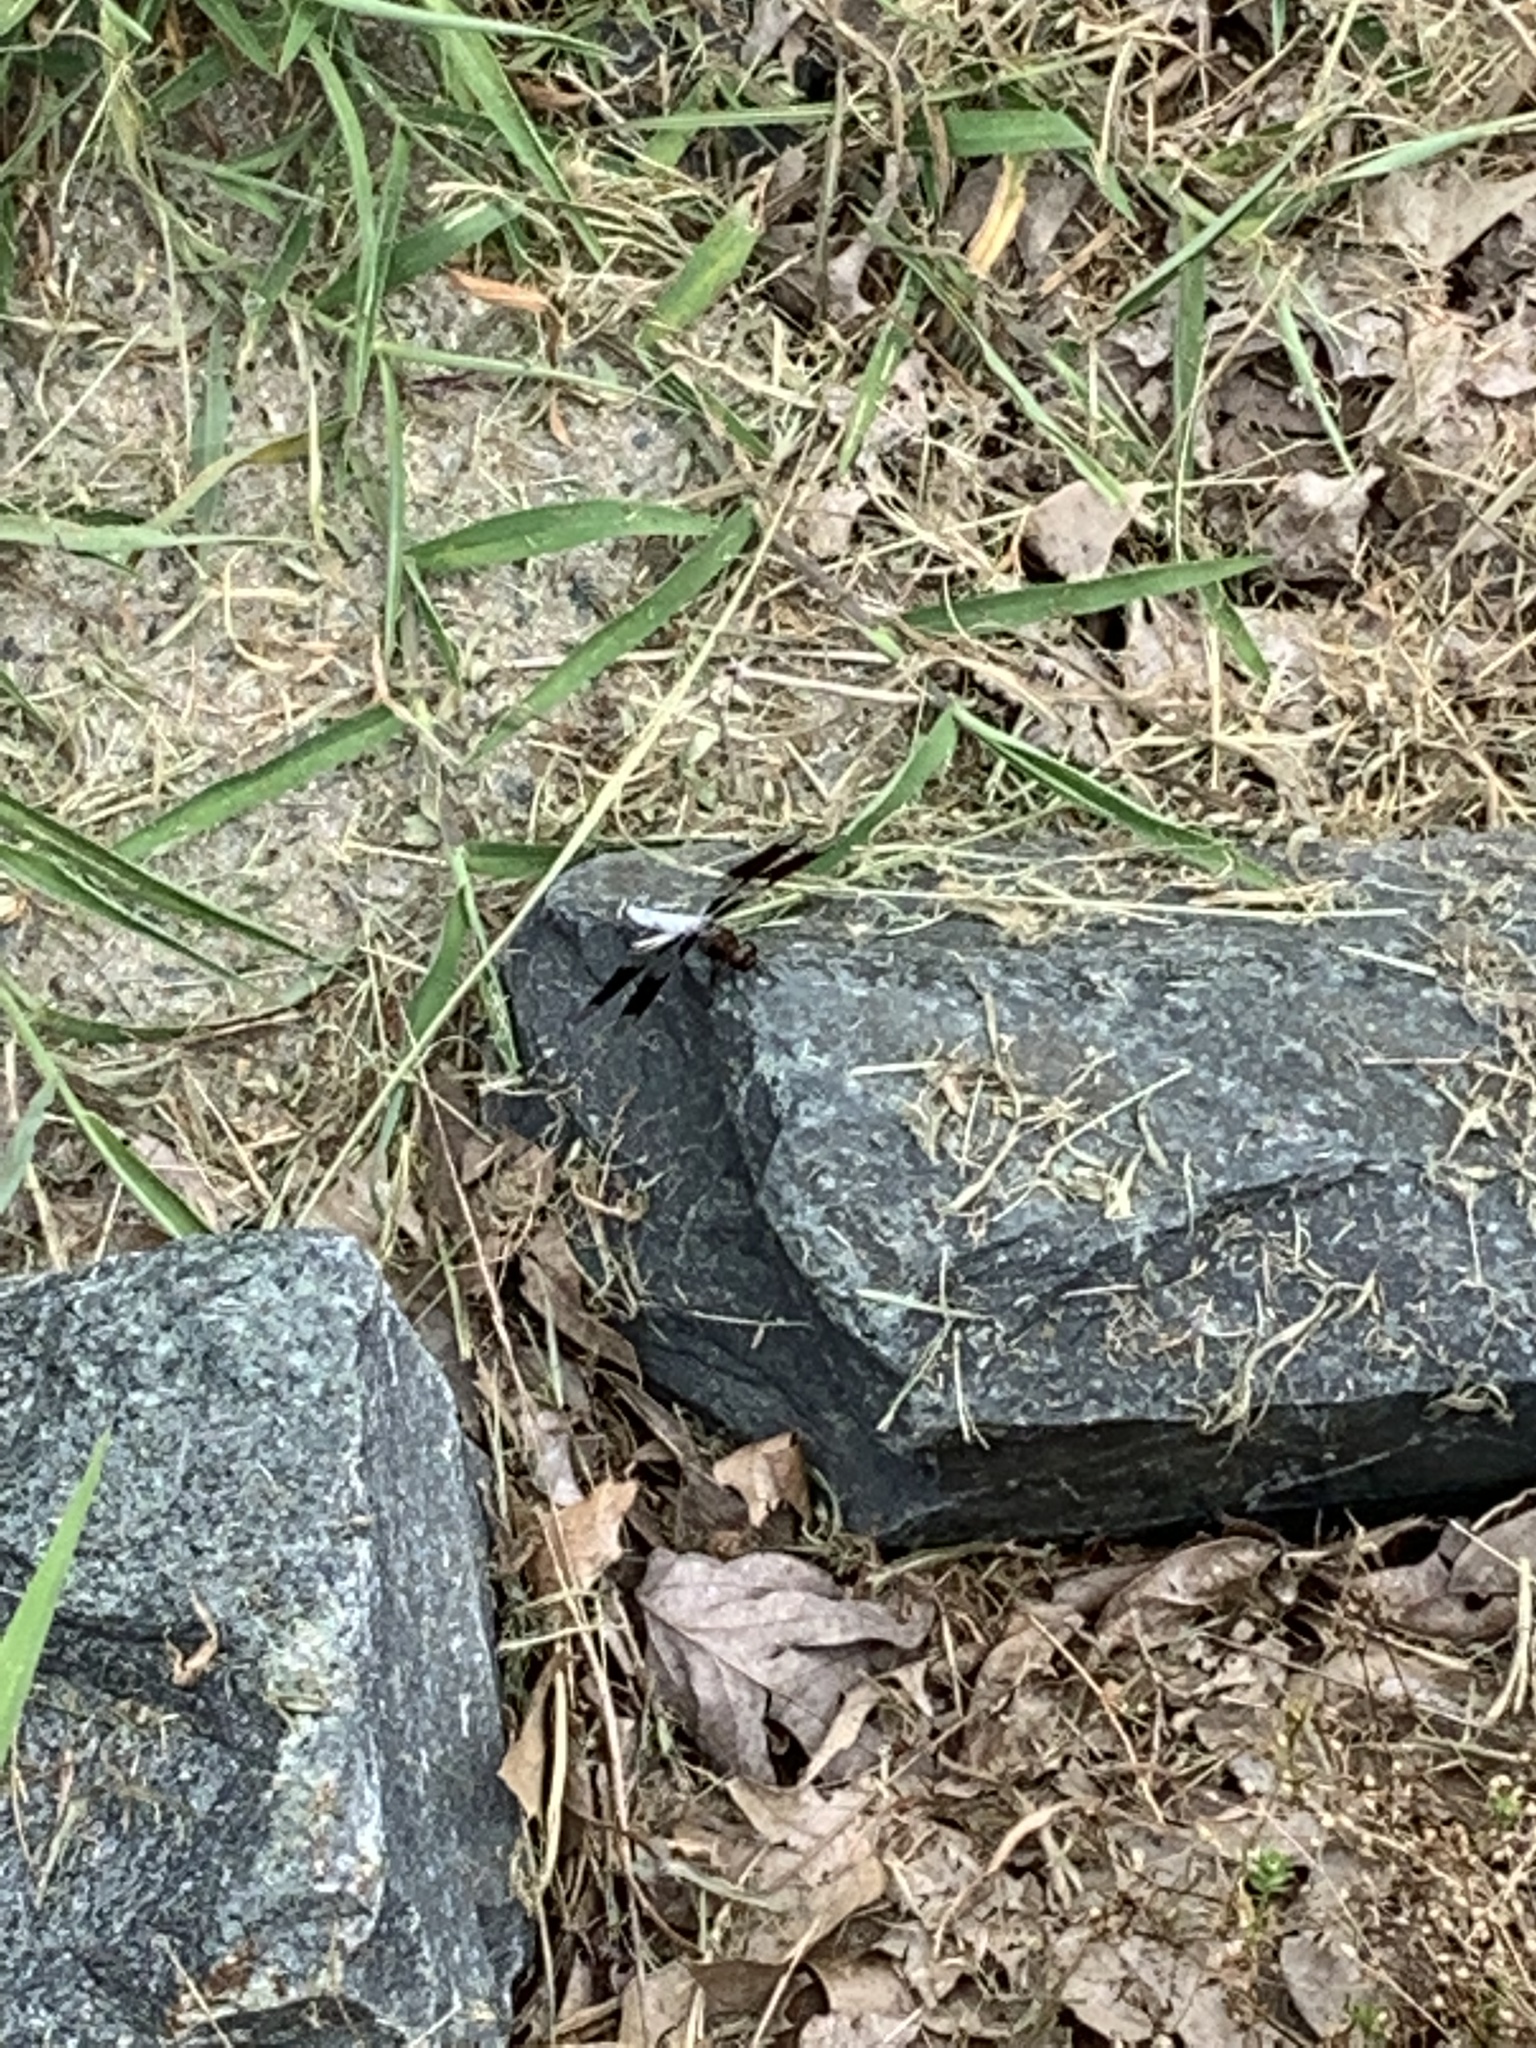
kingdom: Animalia
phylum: Arthropoda
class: Insecta
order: Odonata
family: Libellulidae
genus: Plathemis
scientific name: Plathemis lydia
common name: Common whitetail
